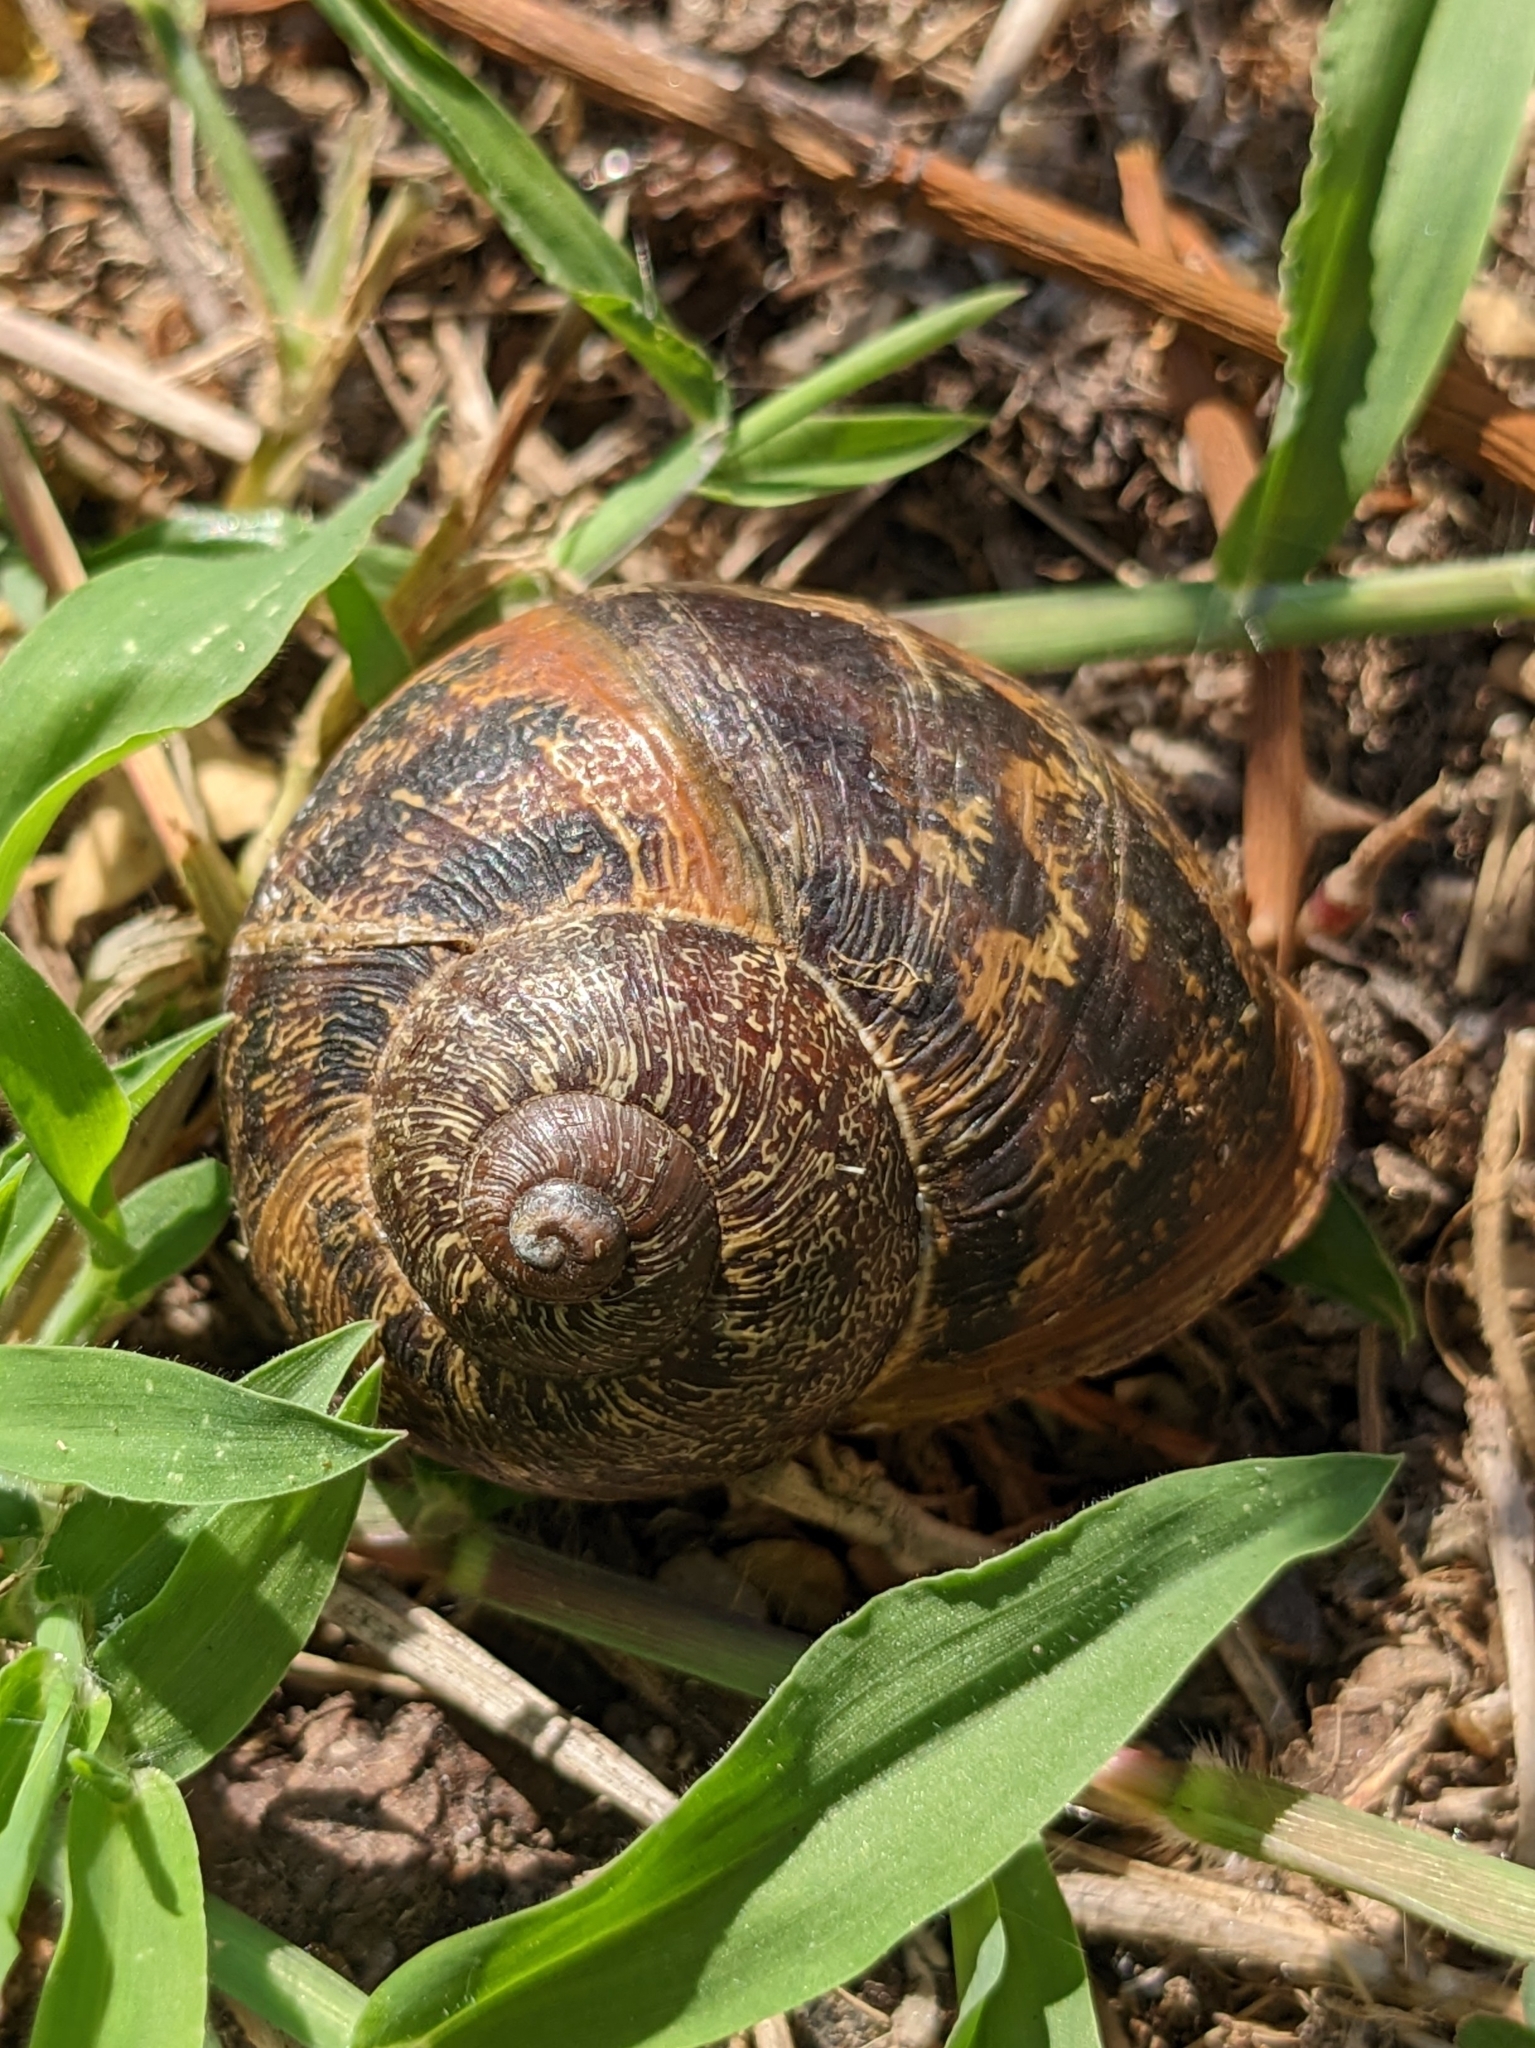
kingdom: Animalia
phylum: Mollusca
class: Gastropoda
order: Stylommatophora
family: Helicidae
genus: Cornu
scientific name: Cornu aspersum
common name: Brown garden snail
